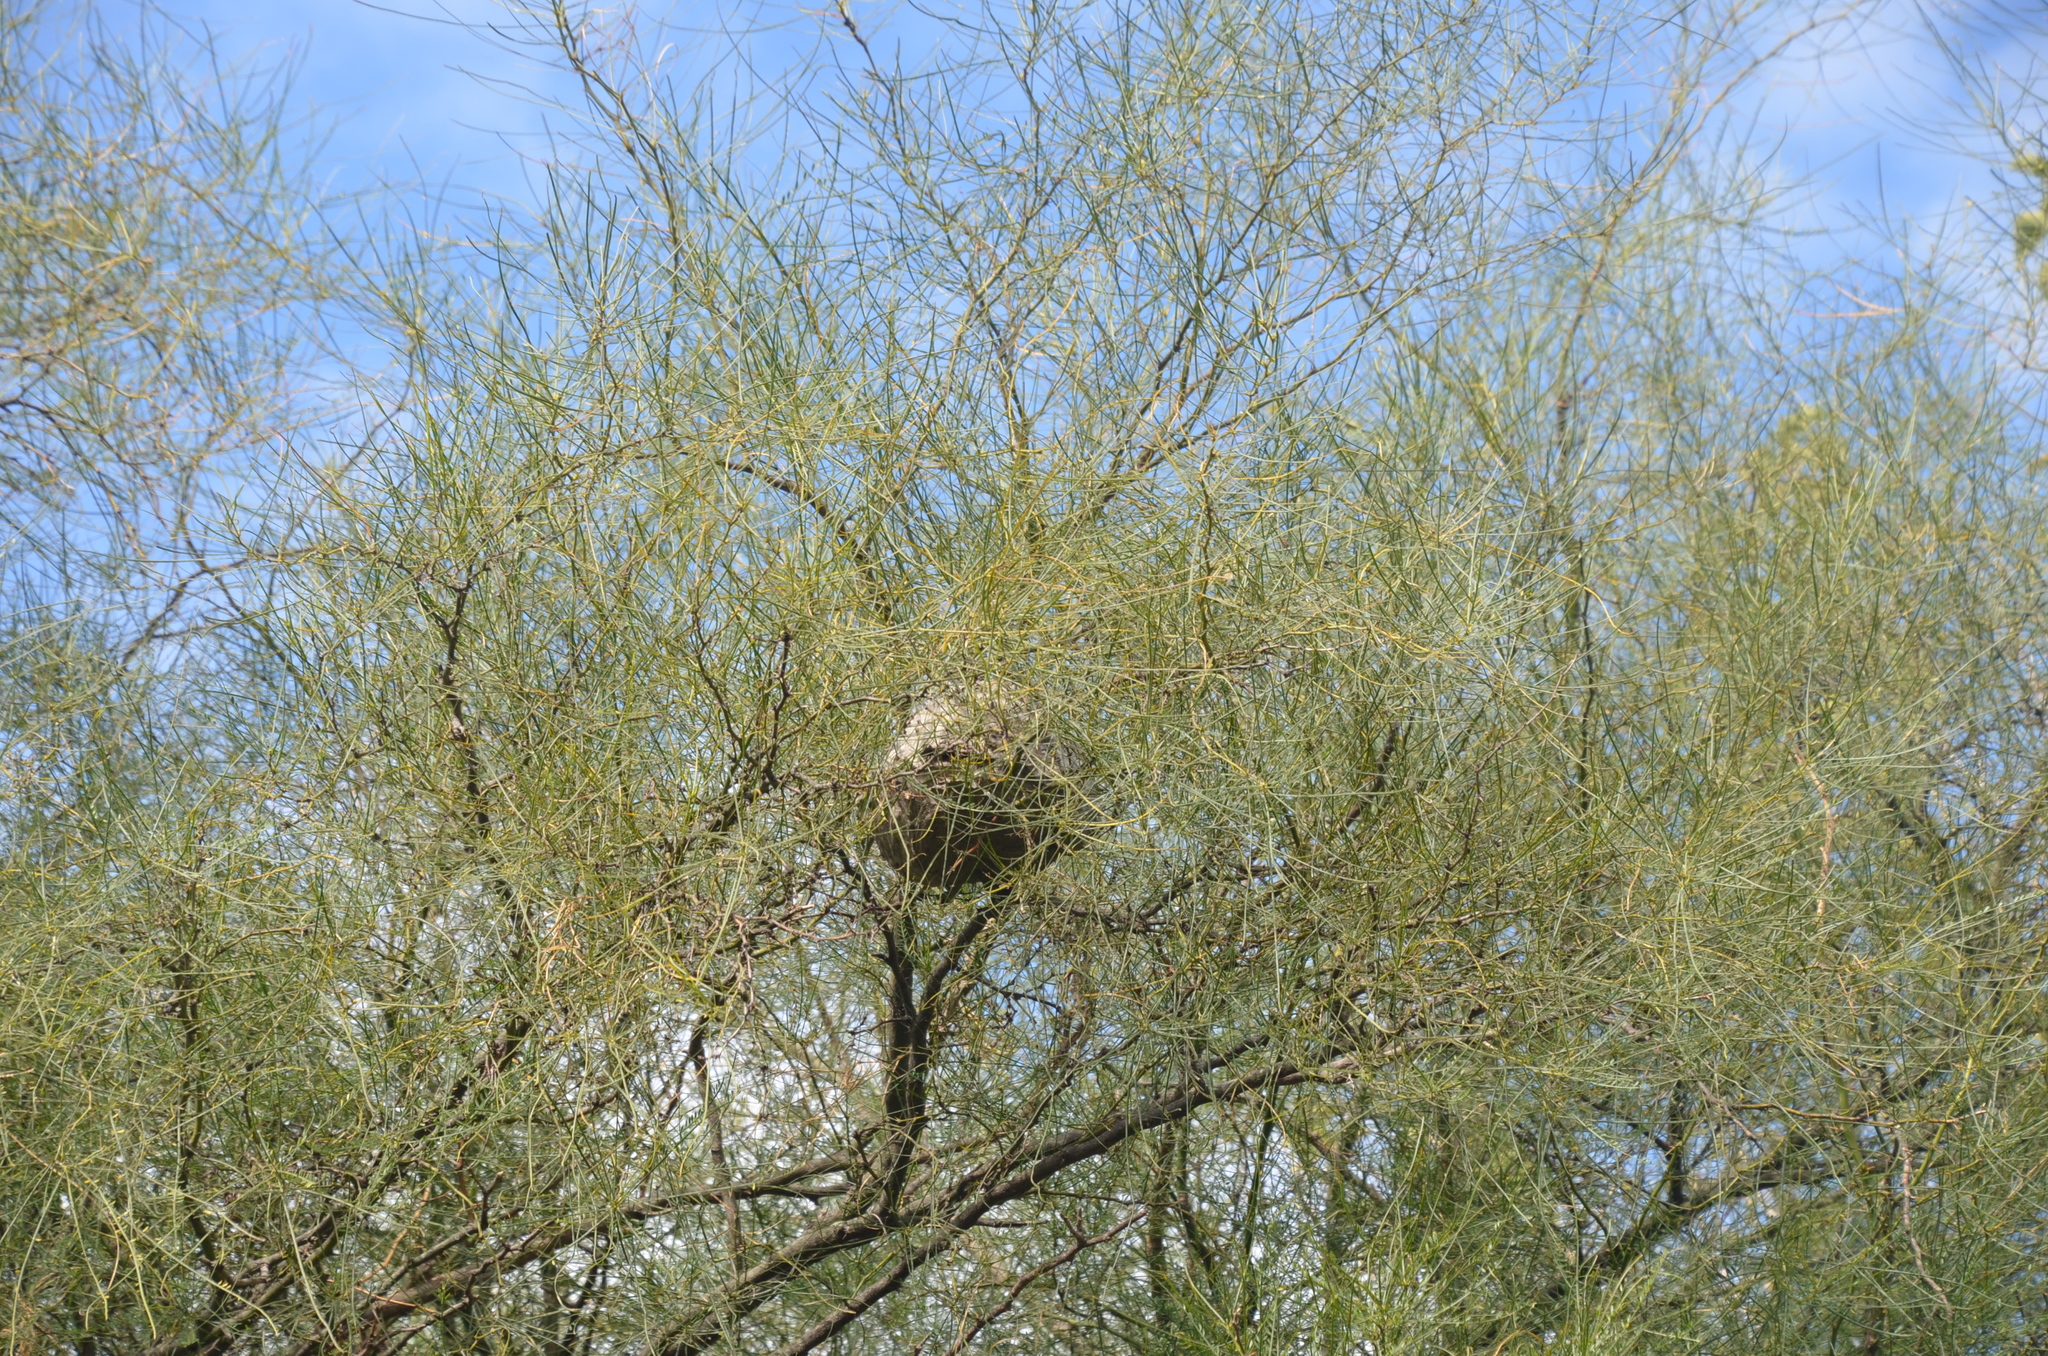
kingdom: Animalia
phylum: Arthropoda
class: Insecta
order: Hymenoptera
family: Eumenidae
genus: Polybia
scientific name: Polybia scutellaris
